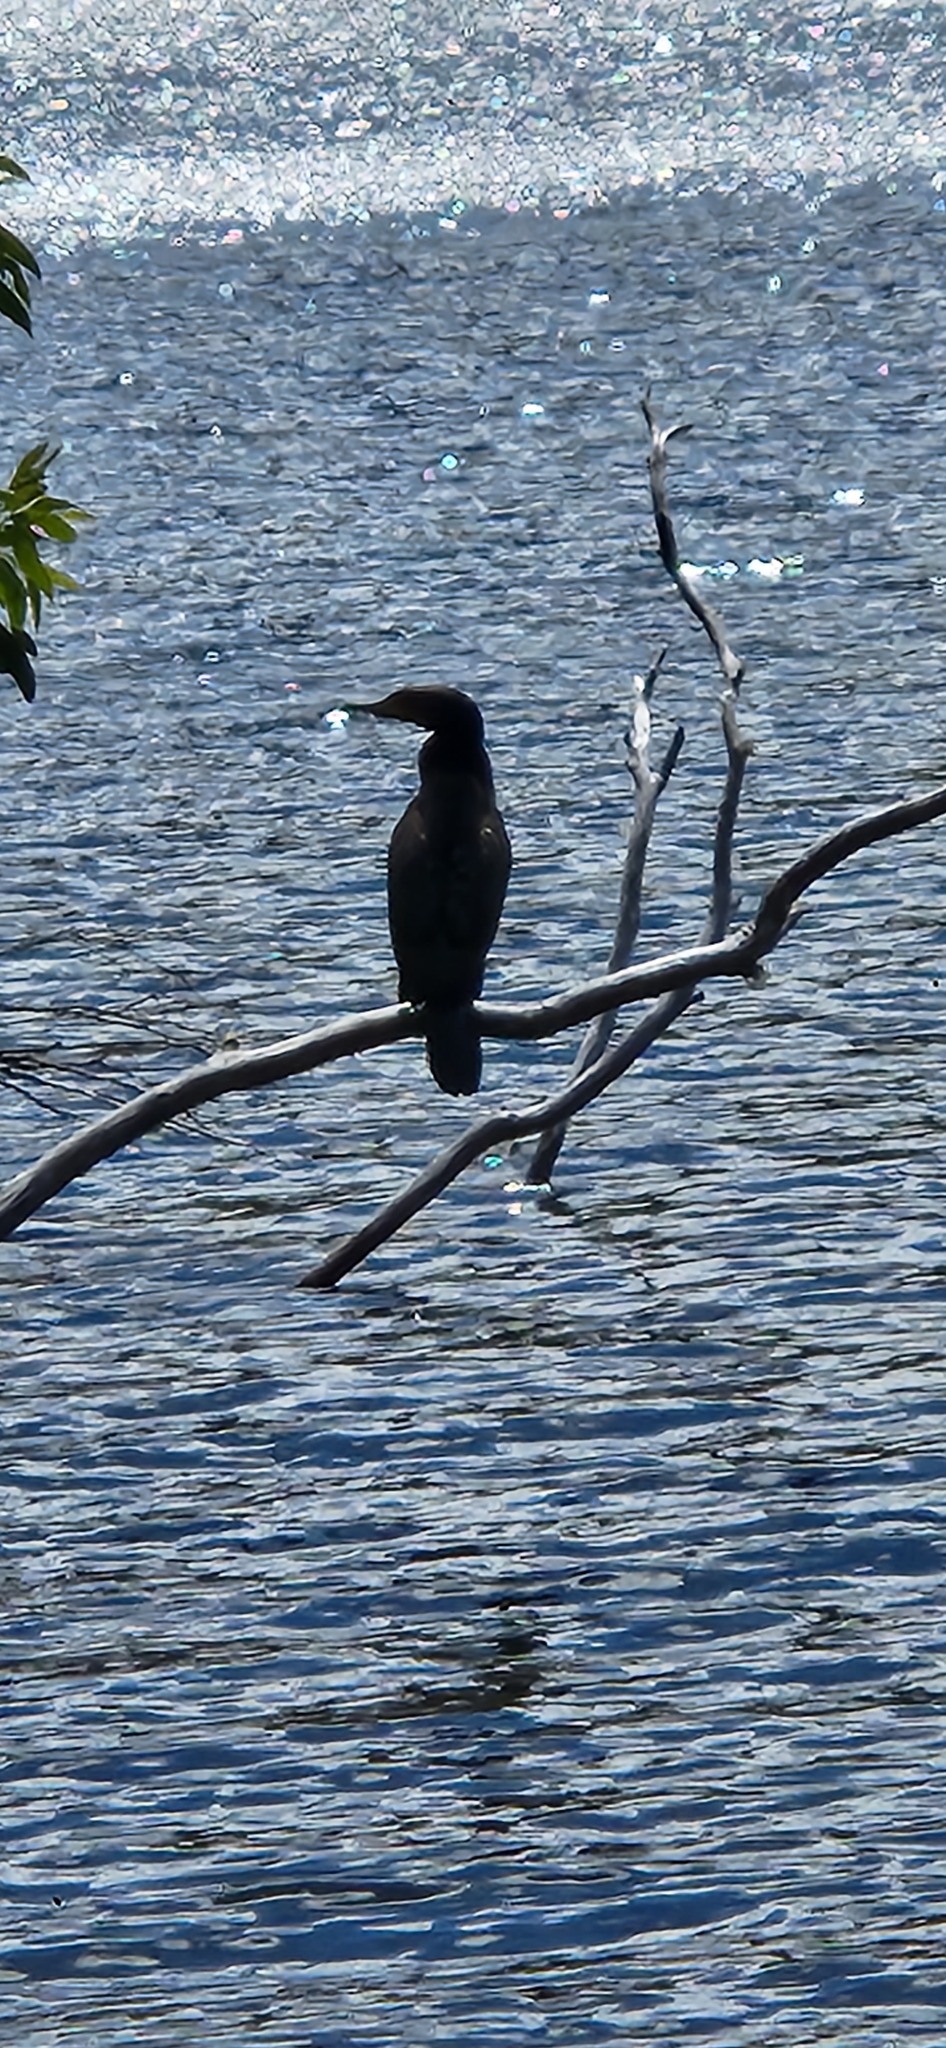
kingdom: Animalia
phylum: Chordata
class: Aves
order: Suliformes
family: Phalacrocoracidae
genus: Phalacrocorax
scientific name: Phalacrocorax carbo
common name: Great cormorant
